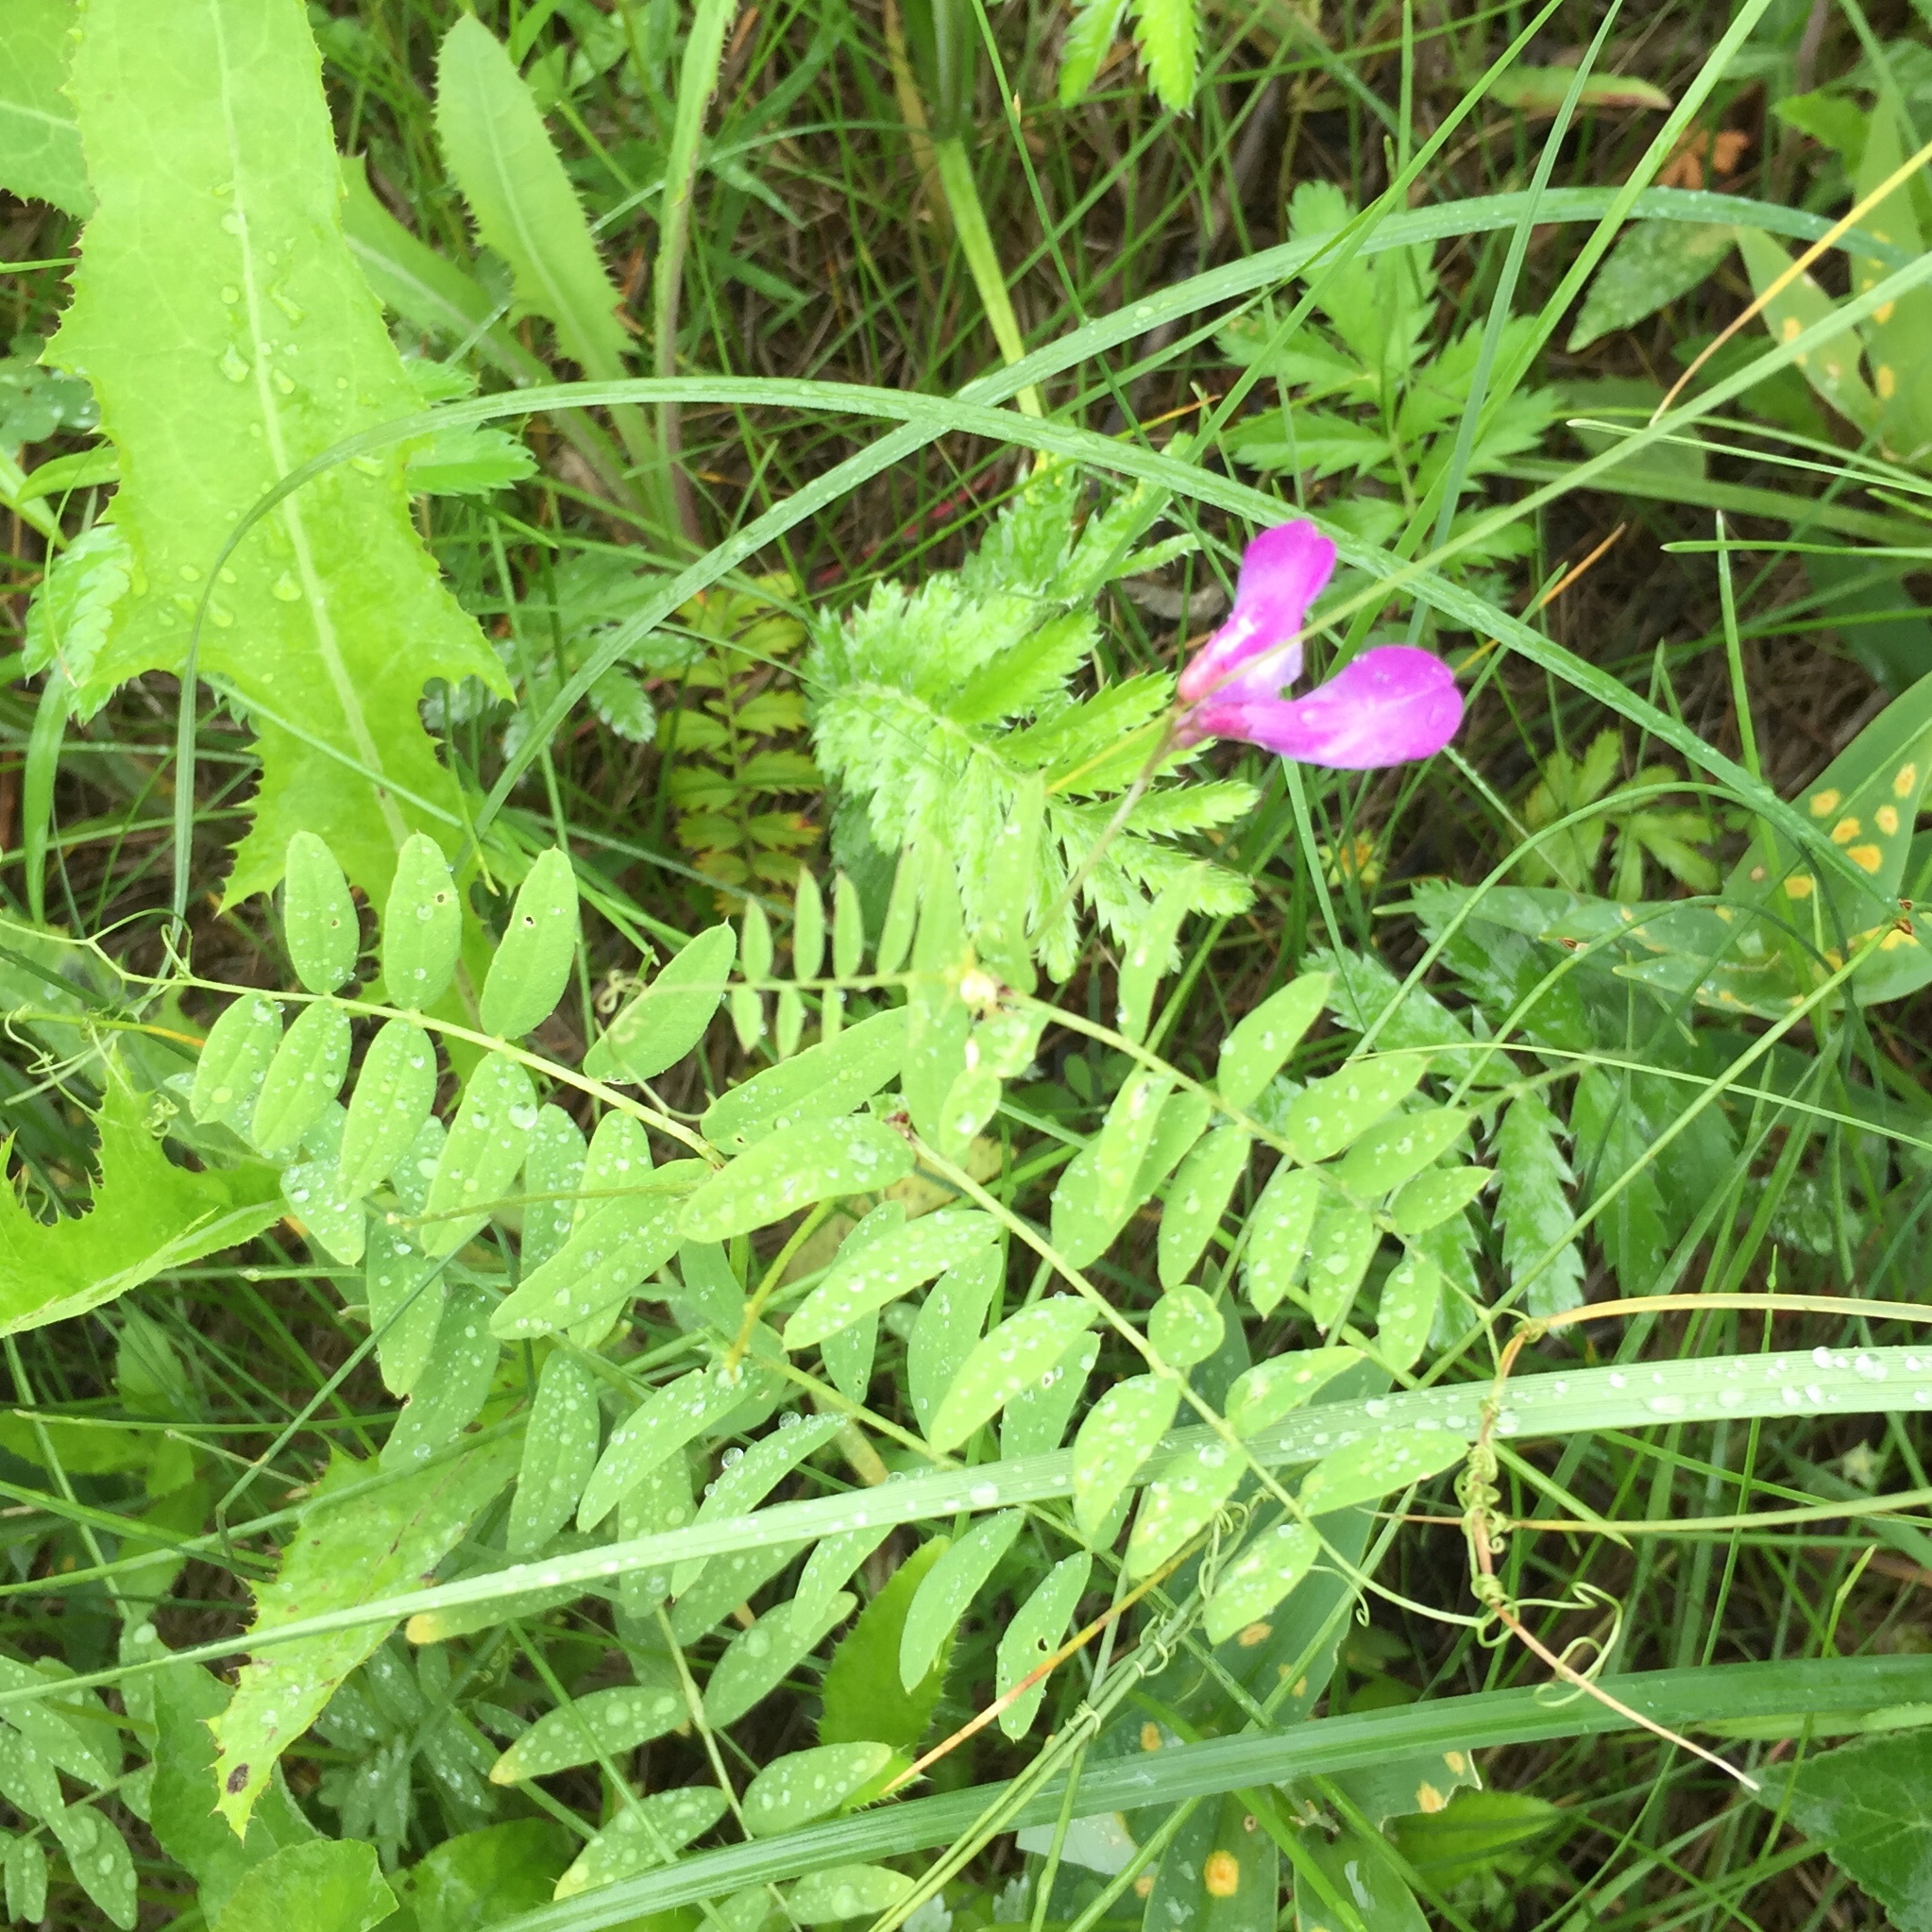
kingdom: Plantae
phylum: Tracheophyta
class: Magnoliopsida
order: Fabales
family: Fabaceae
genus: Vicia
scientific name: Vicia americana
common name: American vetch
